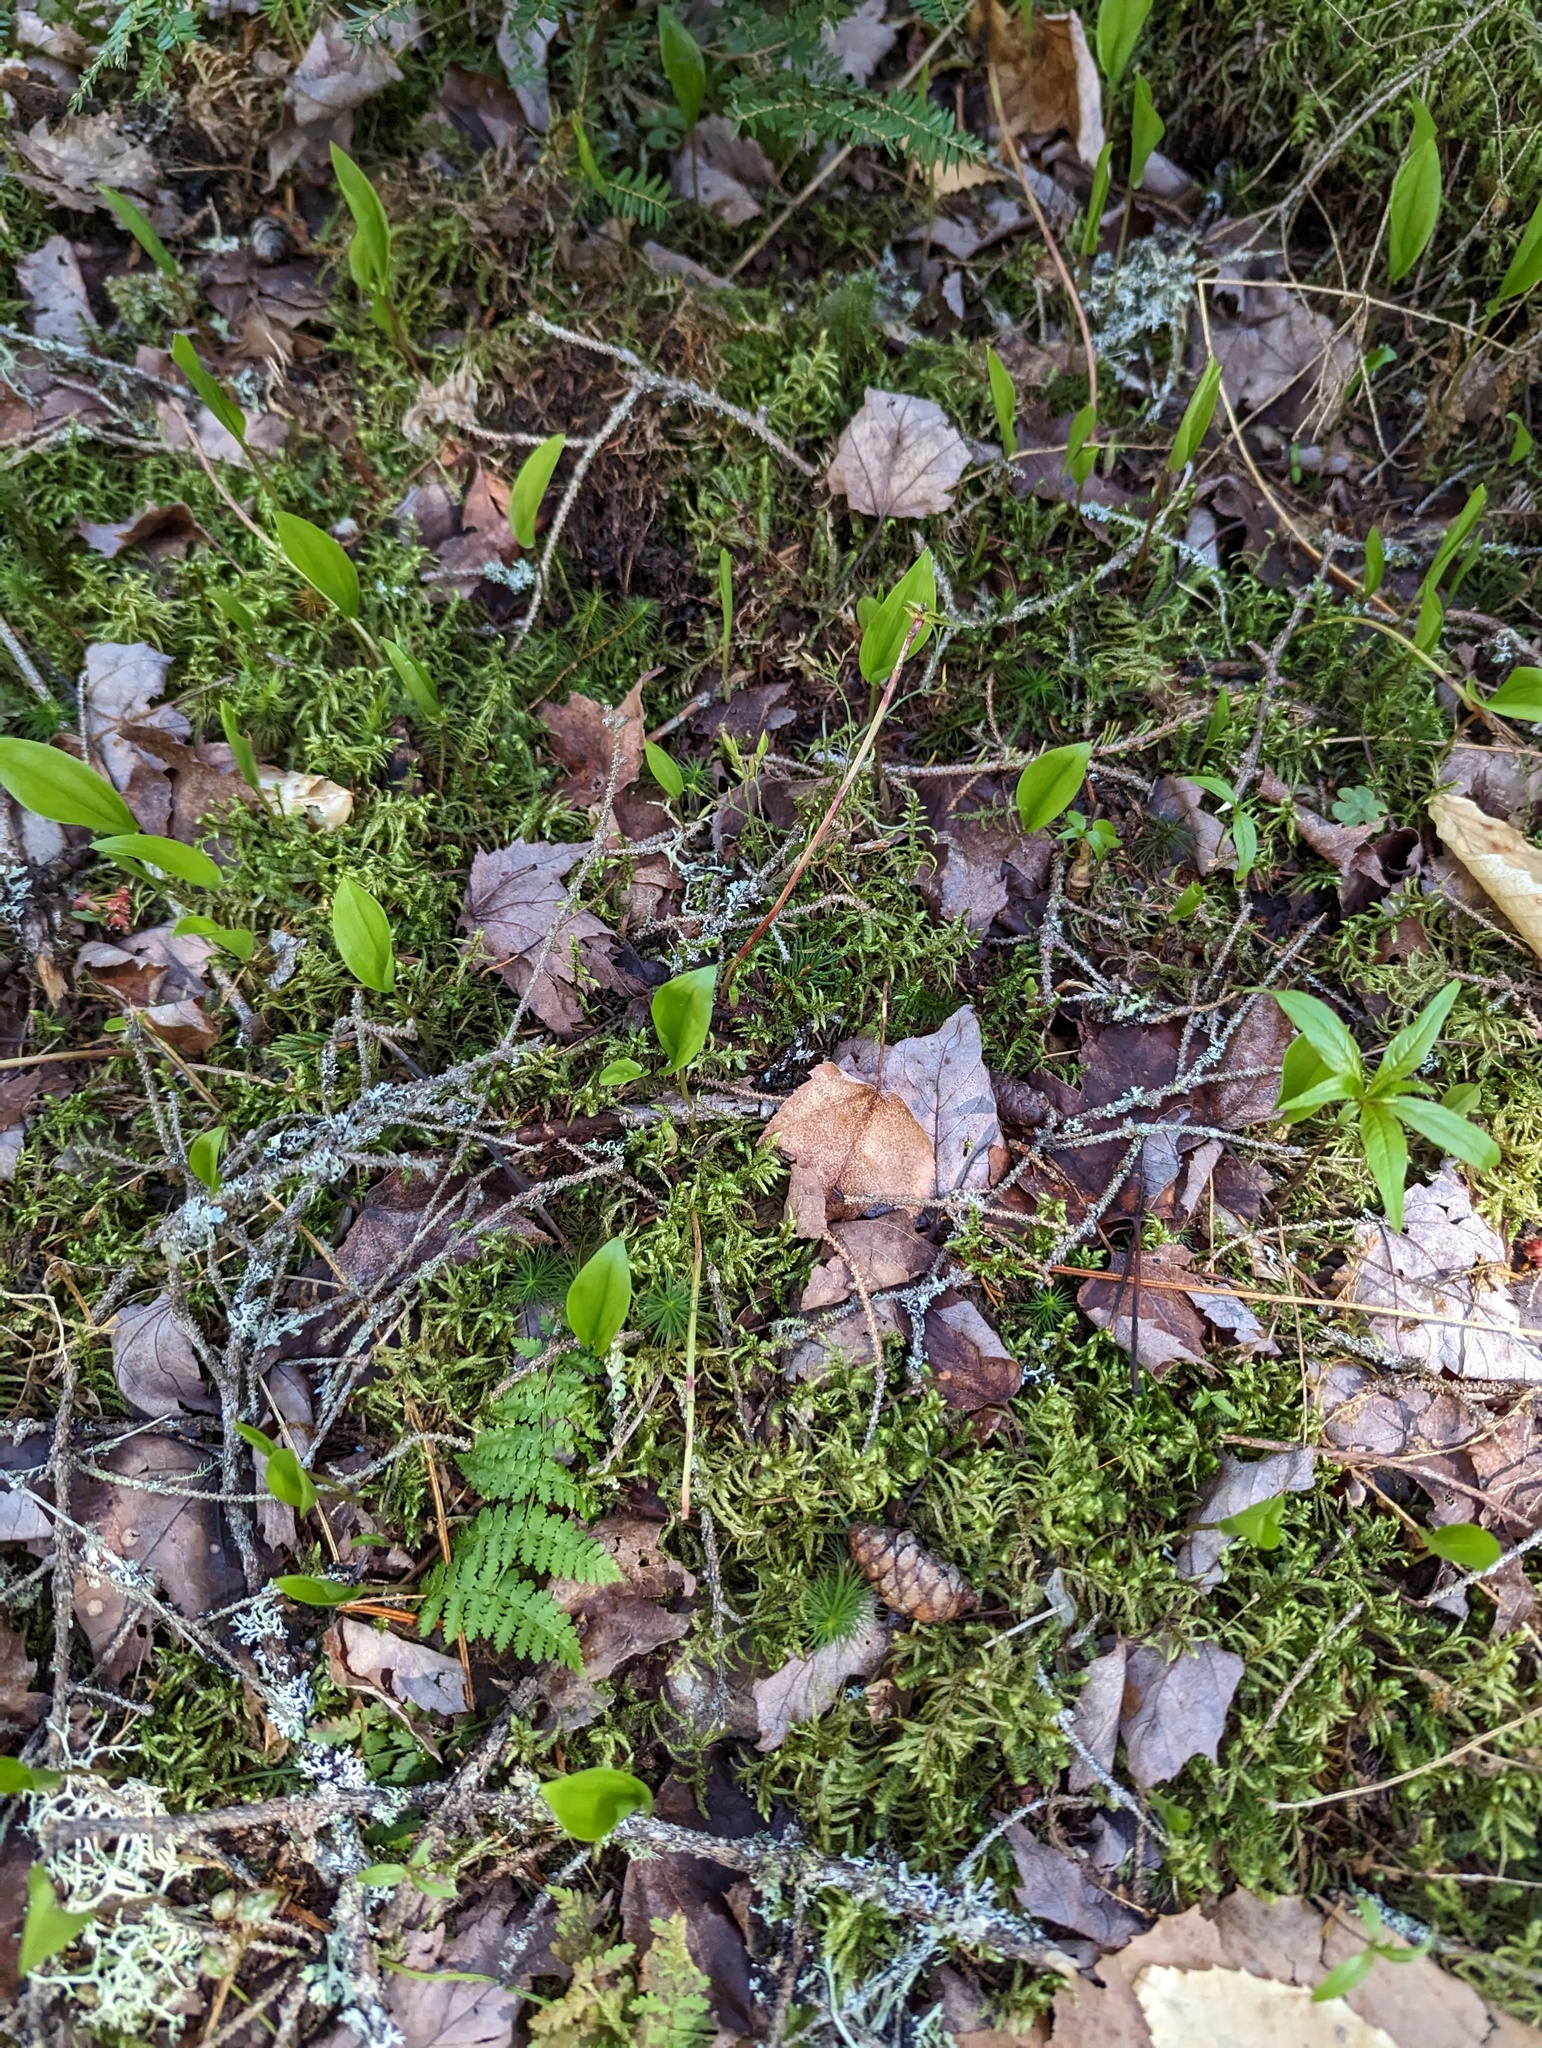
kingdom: Plantae
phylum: Tracheophyta
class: Liliopsida
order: Asparagales
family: Asparagaceae
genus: Maianthemum
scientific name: Maianthemum canadense
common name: False lily-of-the-valley
